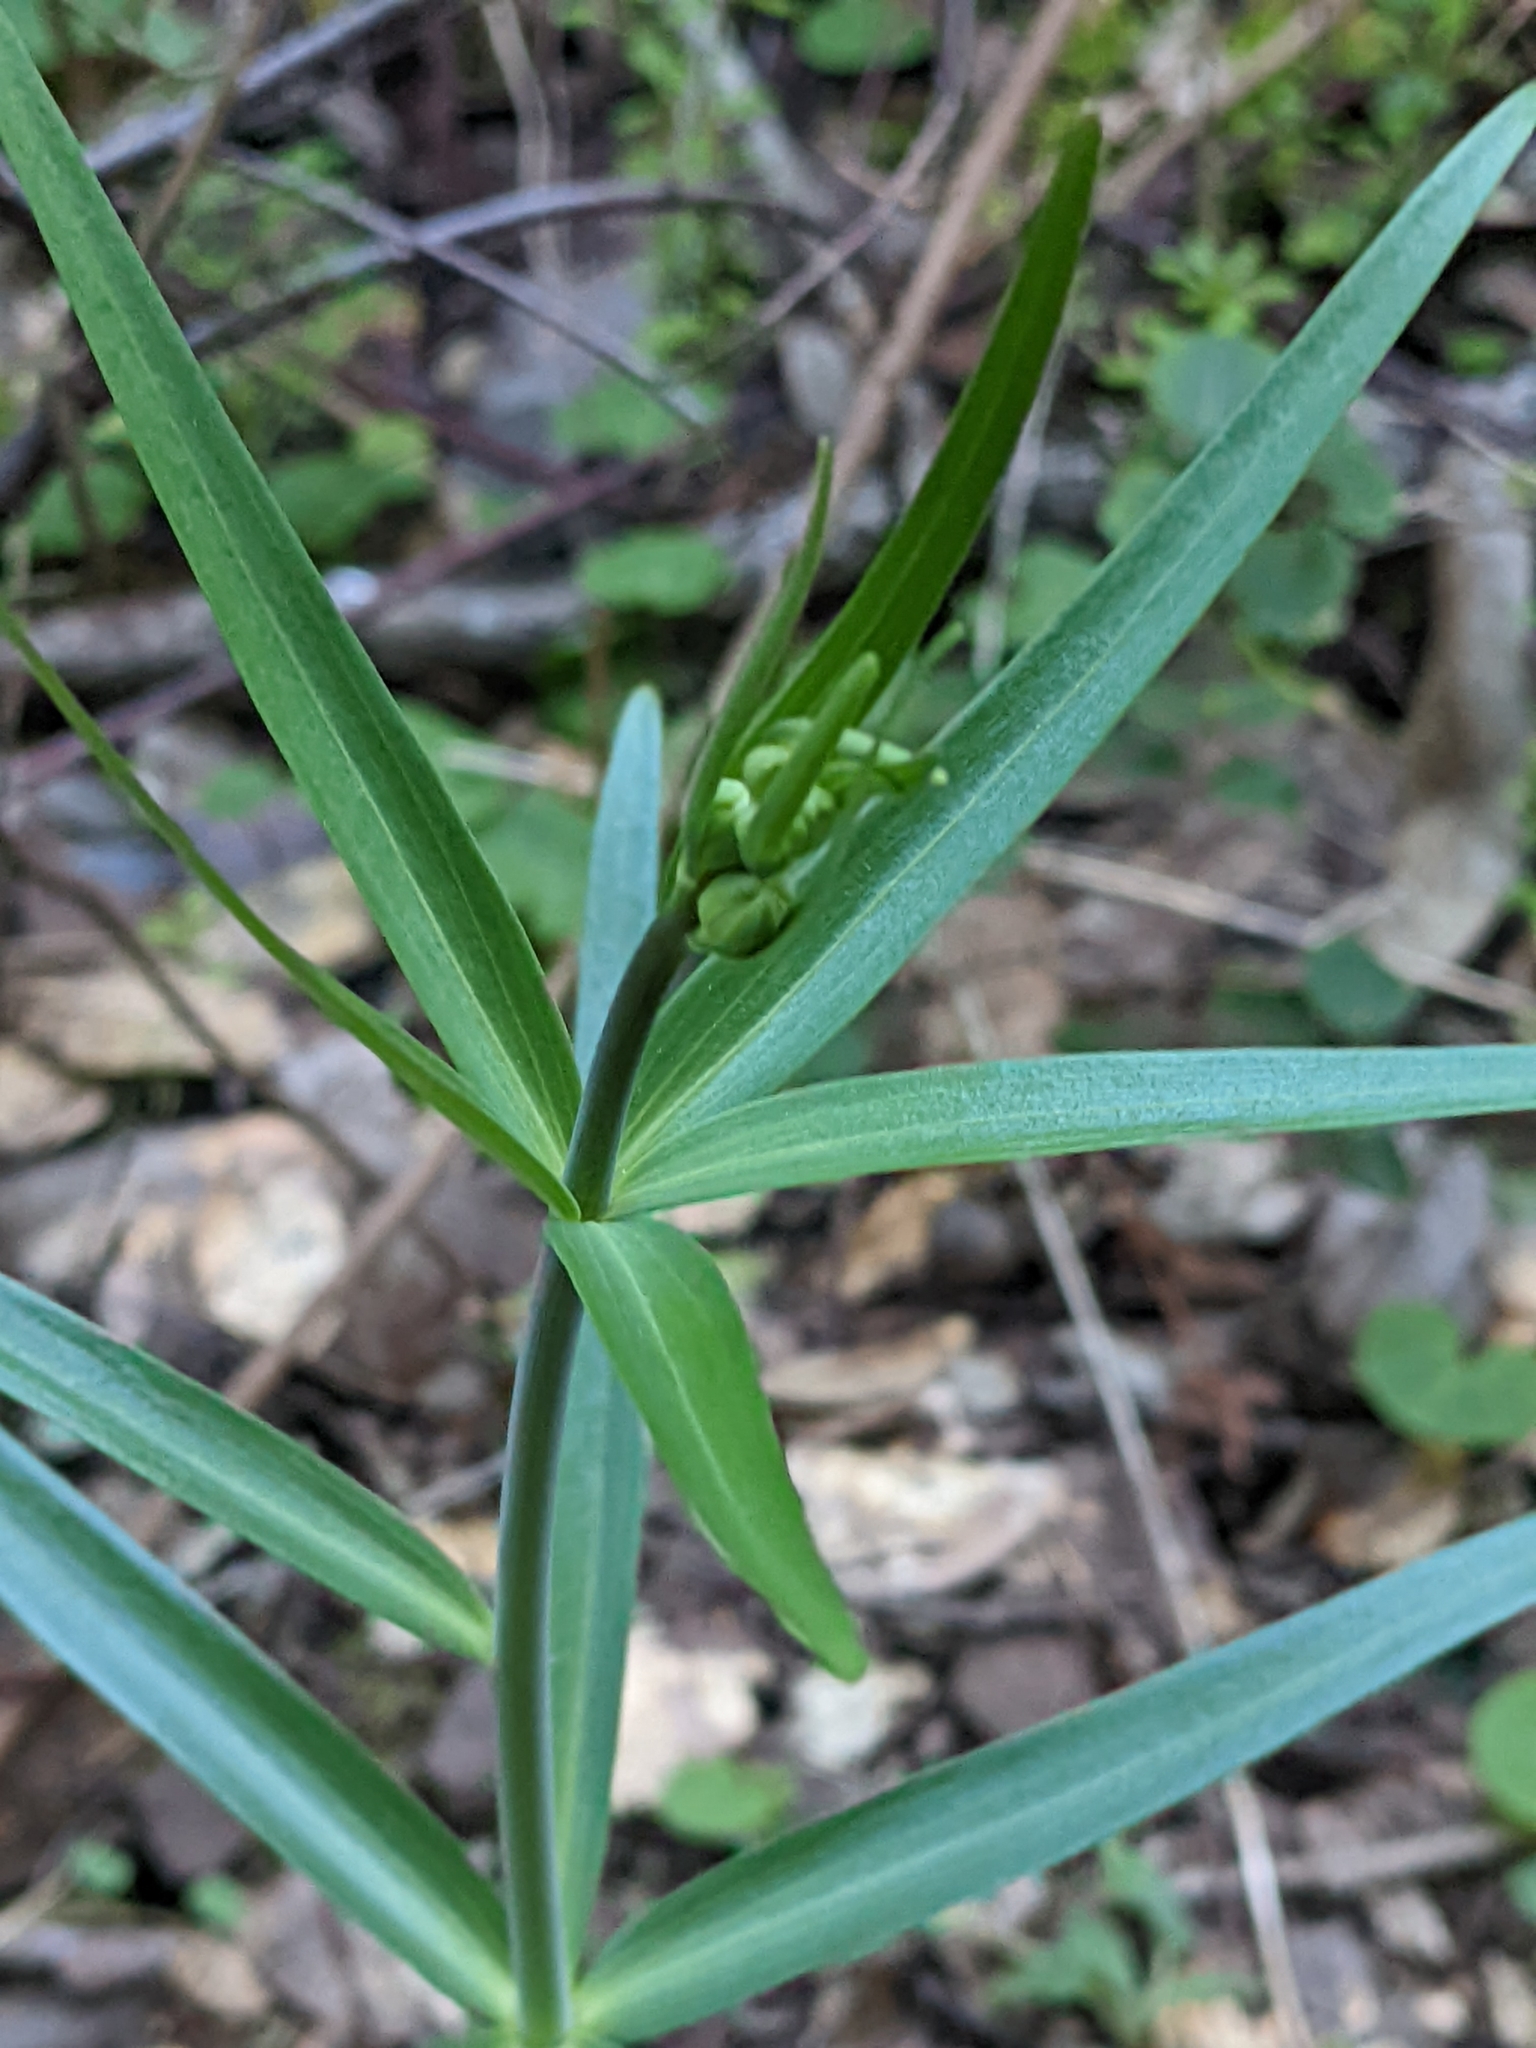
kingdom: Plantae
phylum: Tracheophyta
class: Liliopsida
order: Liliales
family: Liliaceae
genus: Fritillaria
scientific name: Fritillaria affinis
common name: Ojai fritillary
